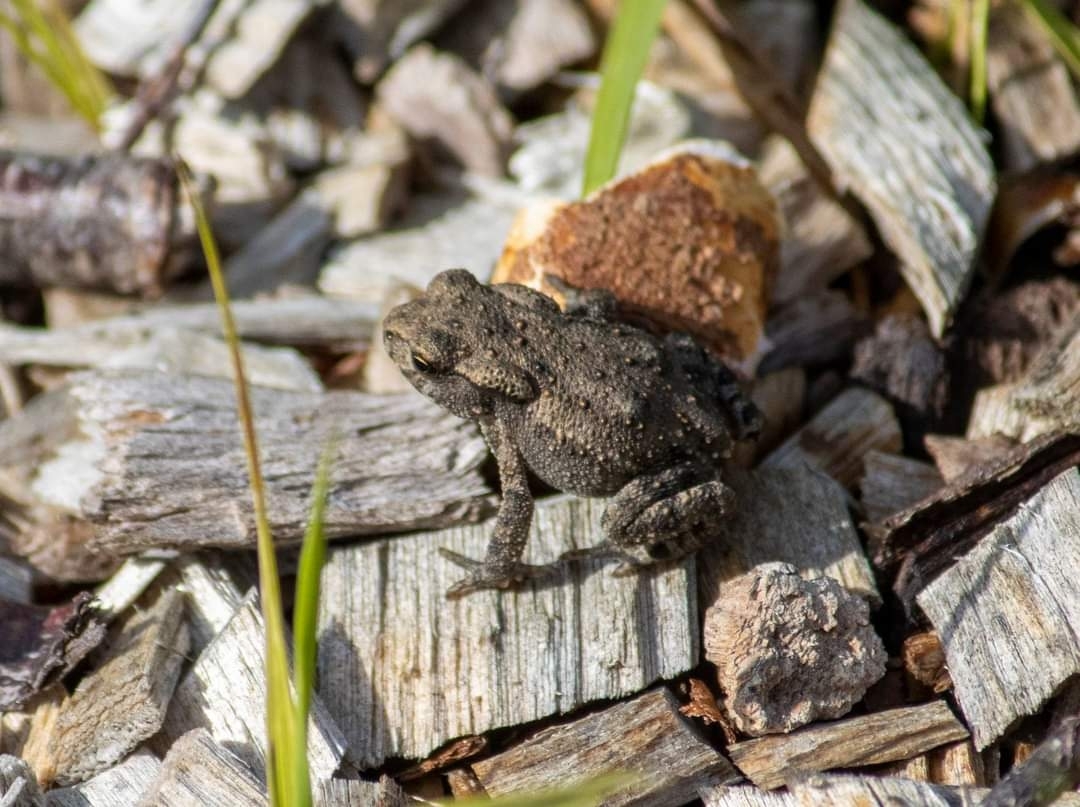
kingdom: Animalia
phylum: Chordata
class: Amphibia
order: Anura
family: Bufonidae
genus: Bufo
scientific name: Bufo bufo
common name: Common toad
